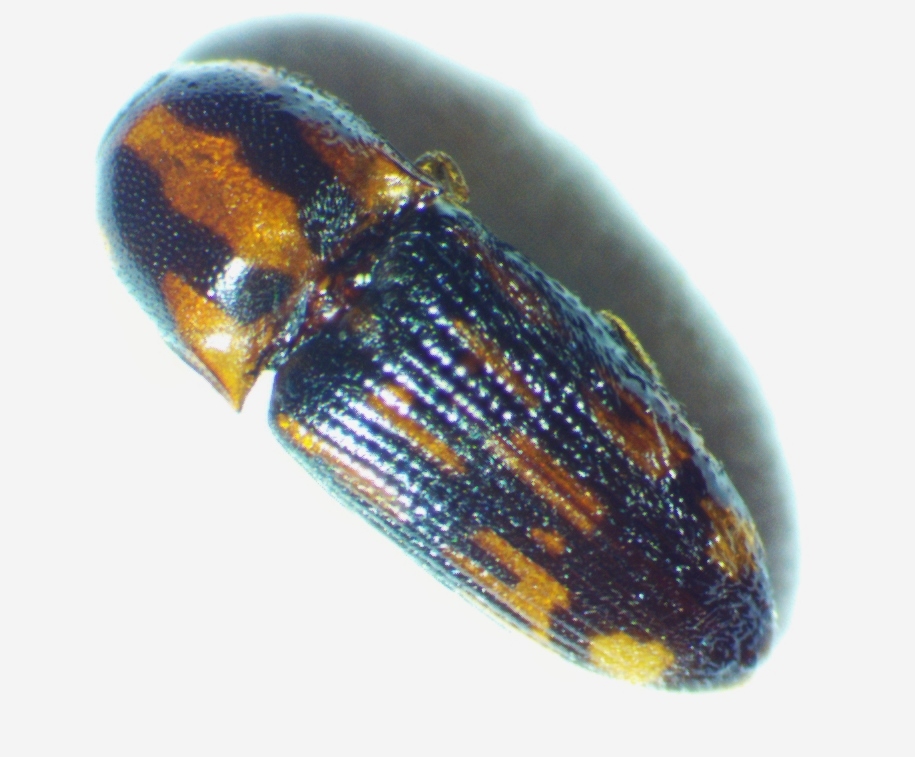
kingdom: Animalia
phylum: Arthropoda
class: Insecta
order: Coleoptera
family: Elateridae
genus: Monocrepidius
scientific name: Monocrepidius bellus
